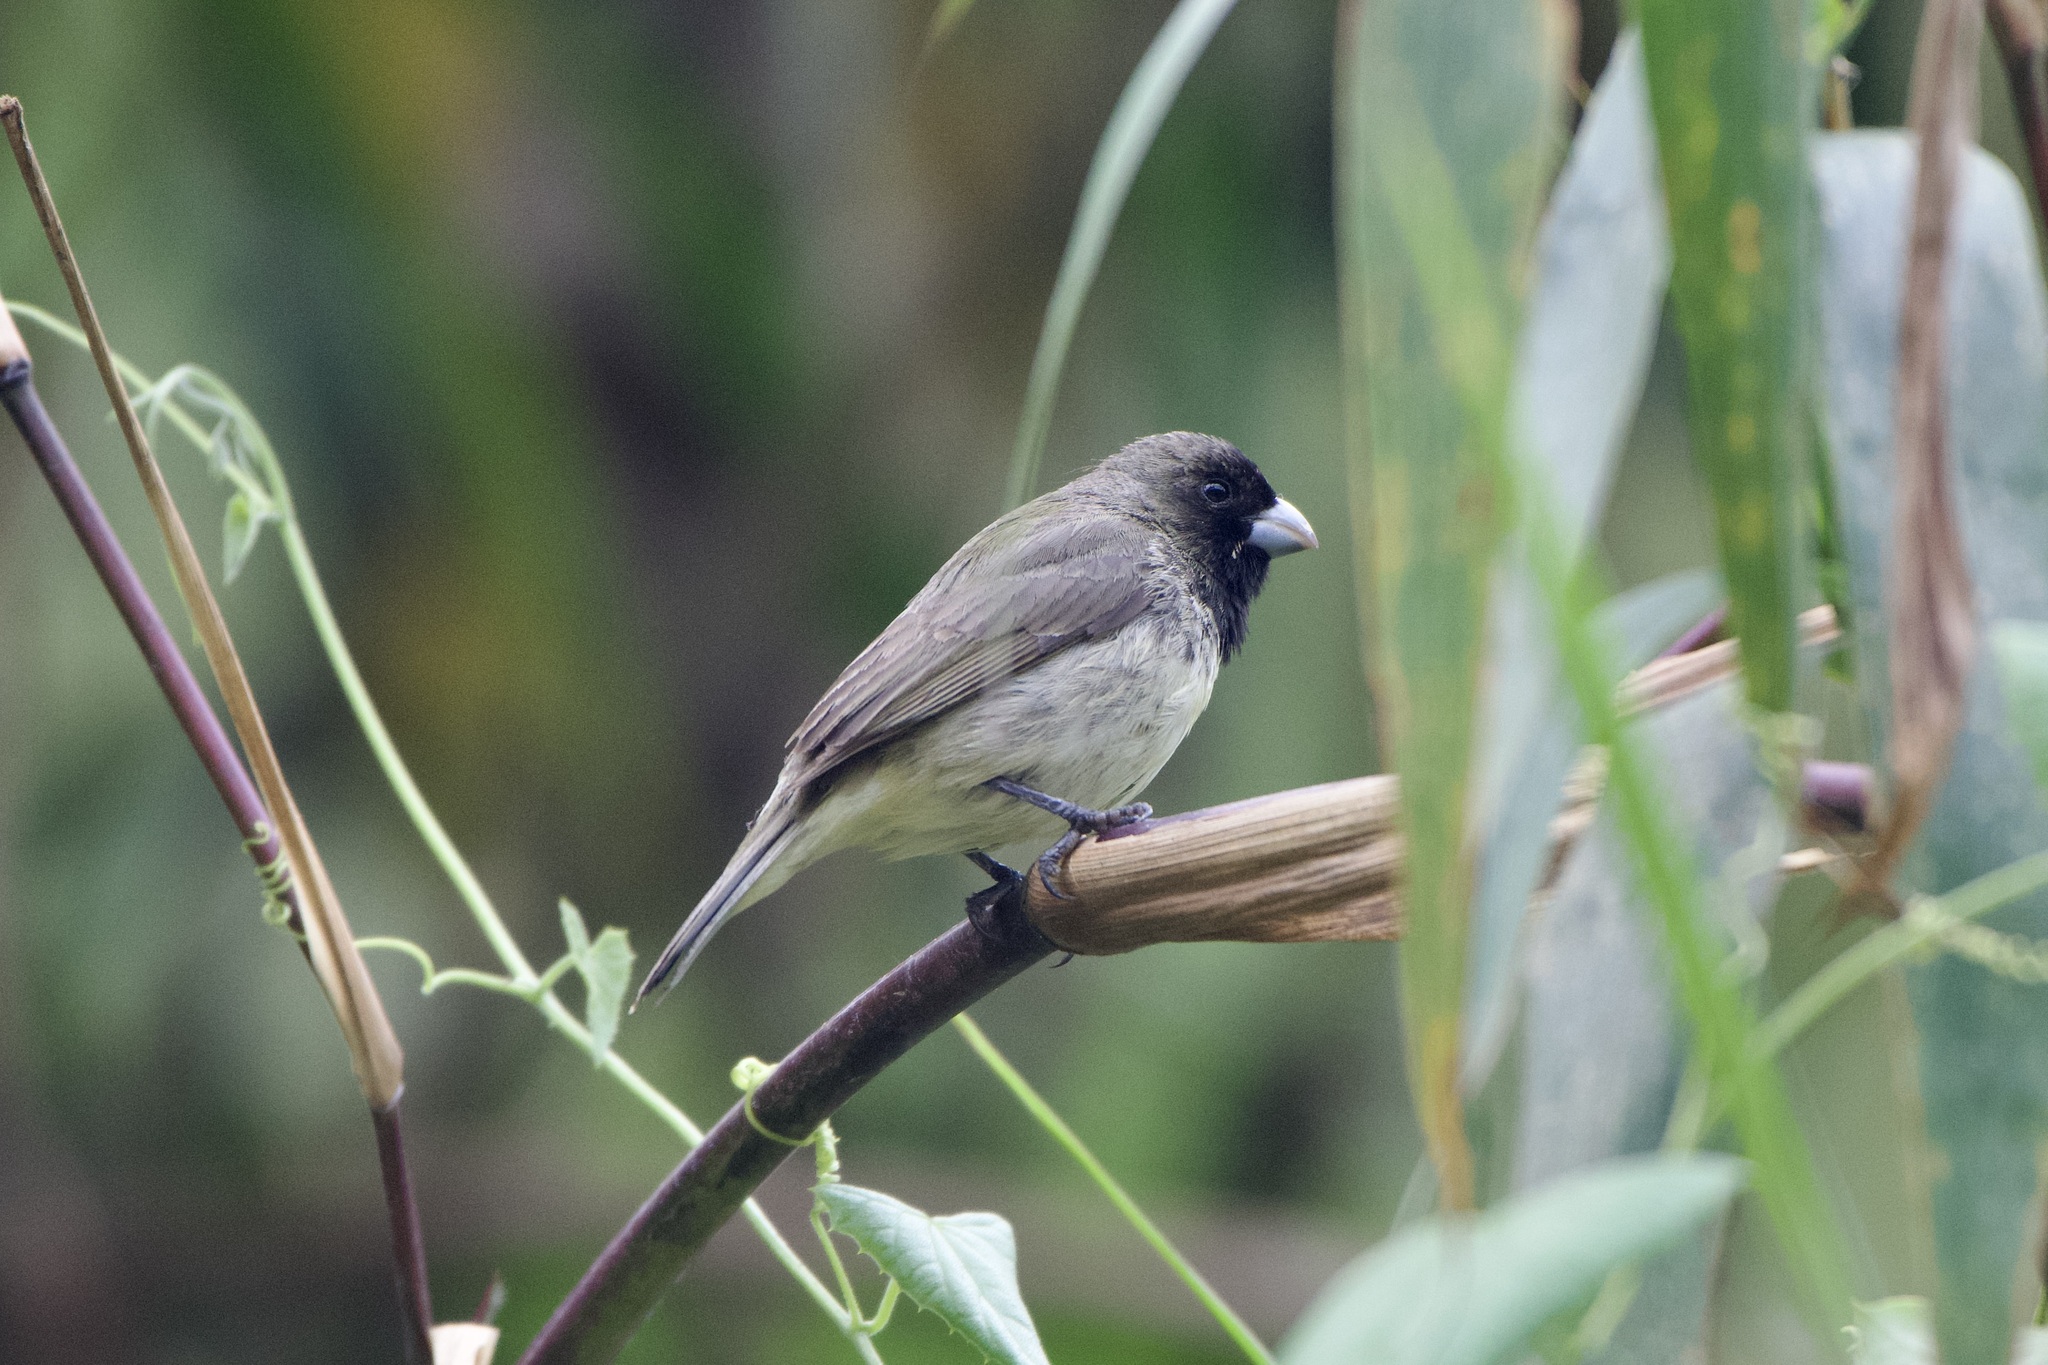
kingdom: Animalia
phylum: Chordata
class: Aves
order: Passeriformes
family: Thraupidae
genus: Sporophila
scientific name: Sporophila nigricollis
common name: Yellow-bellied seedeater
